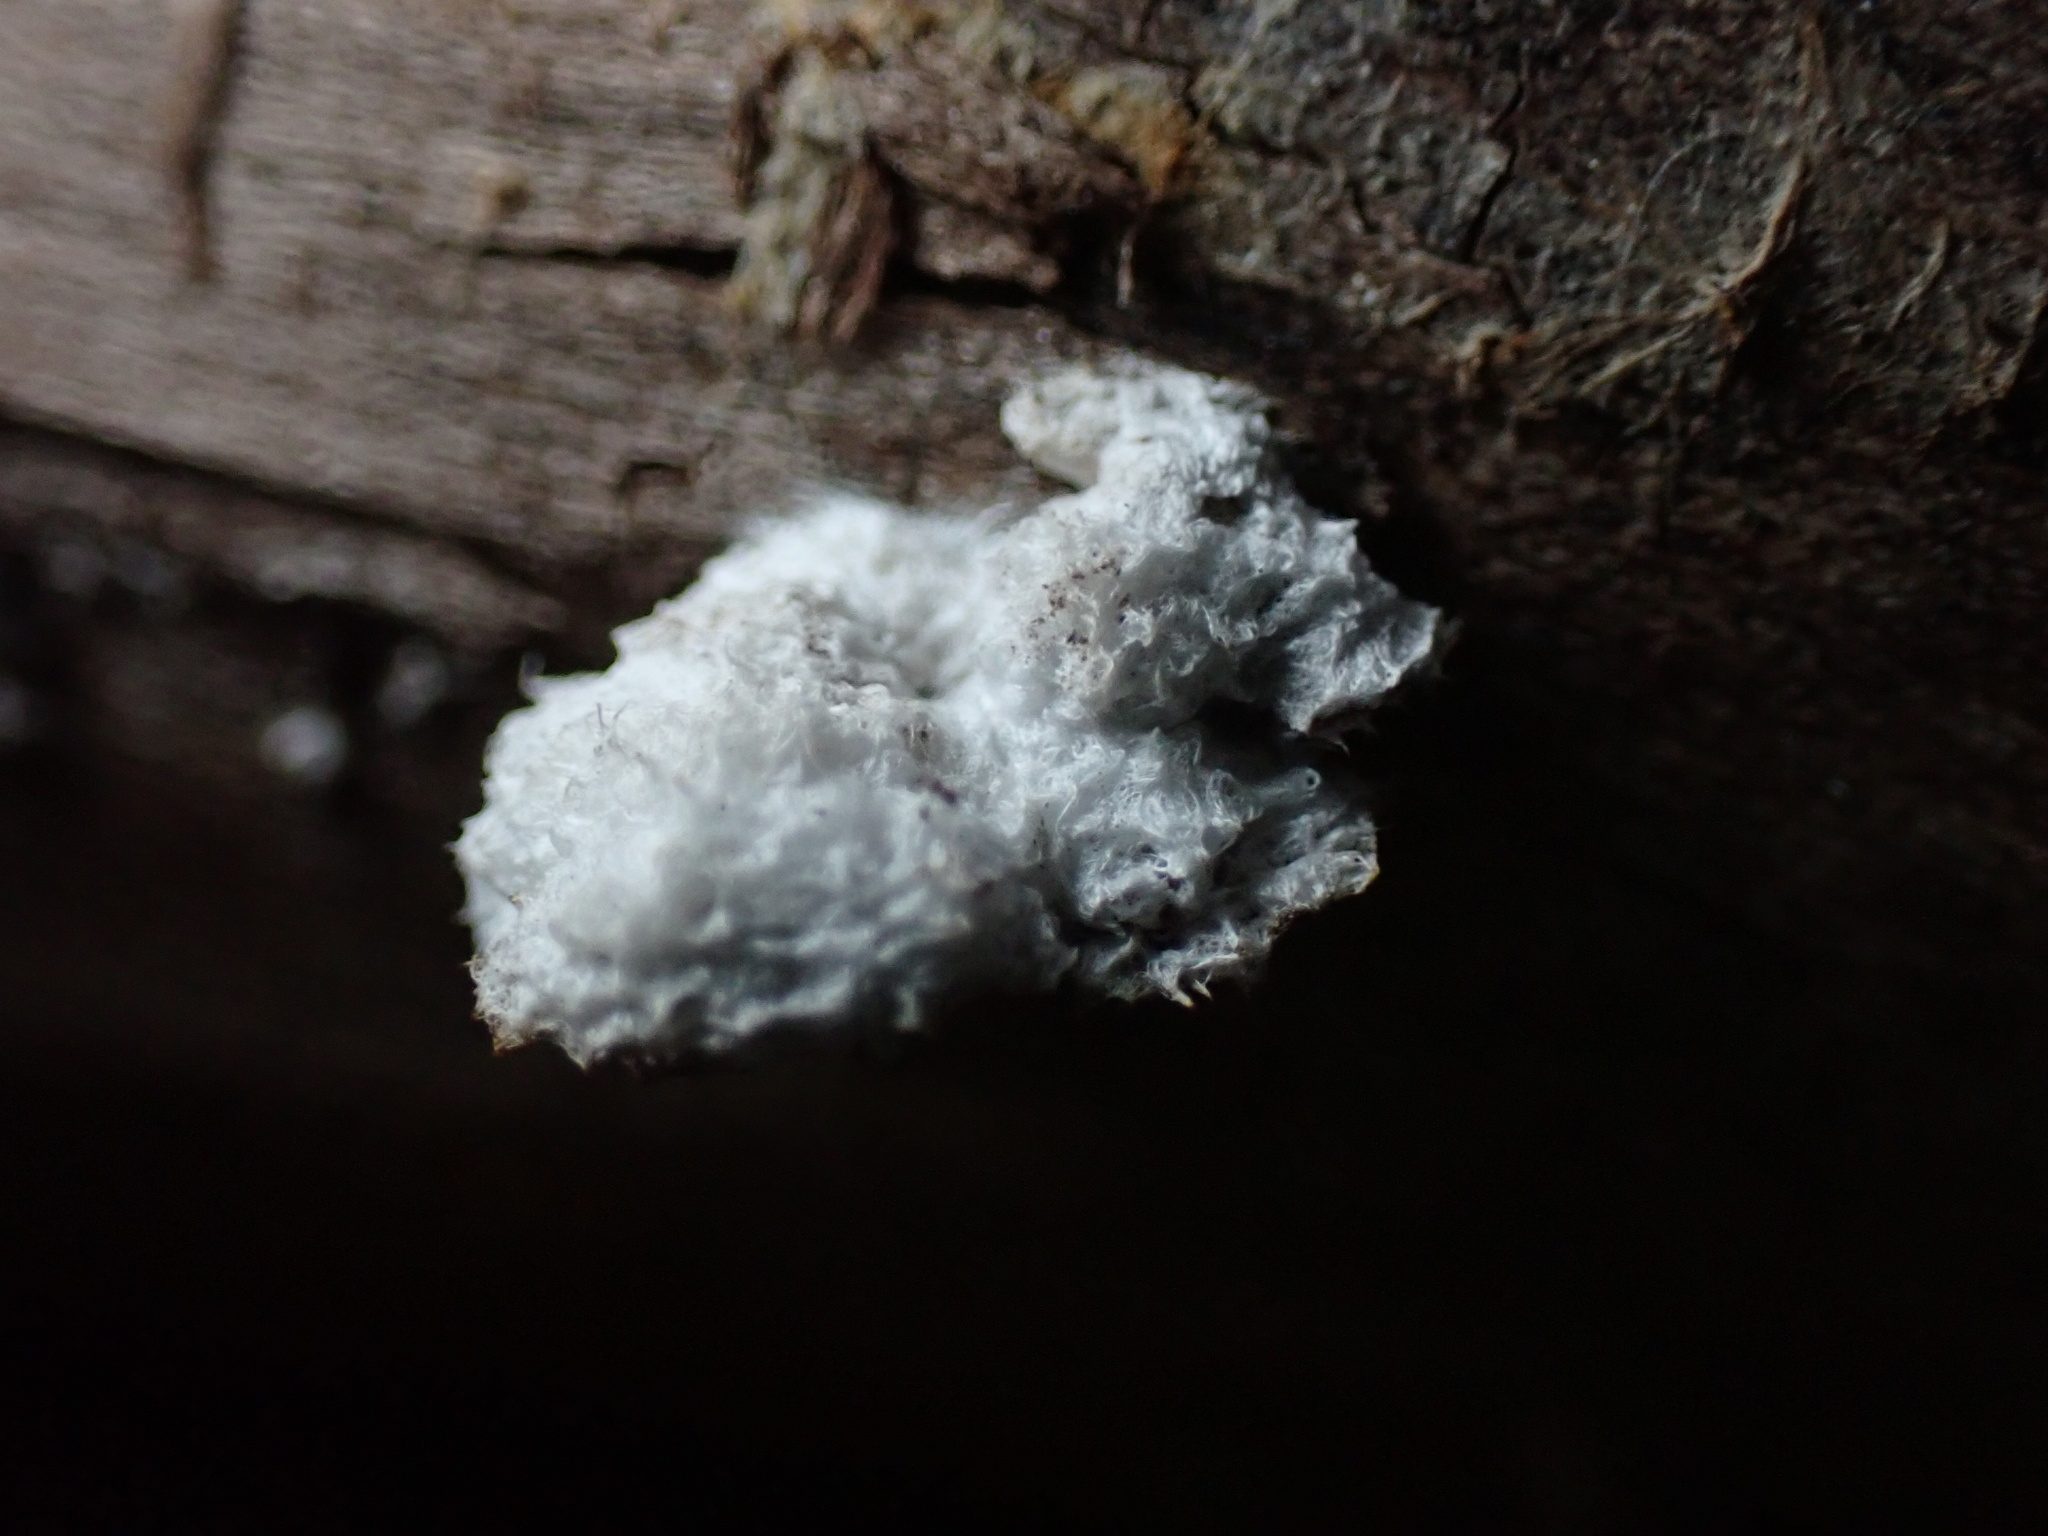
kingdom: Fungi
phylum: Basidiomycota
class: Agaricomycetes
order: Agaricales
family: Schizophyllaceae
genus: Schizophyllum
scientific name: Schizophyllum commune
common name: Common porecrust
